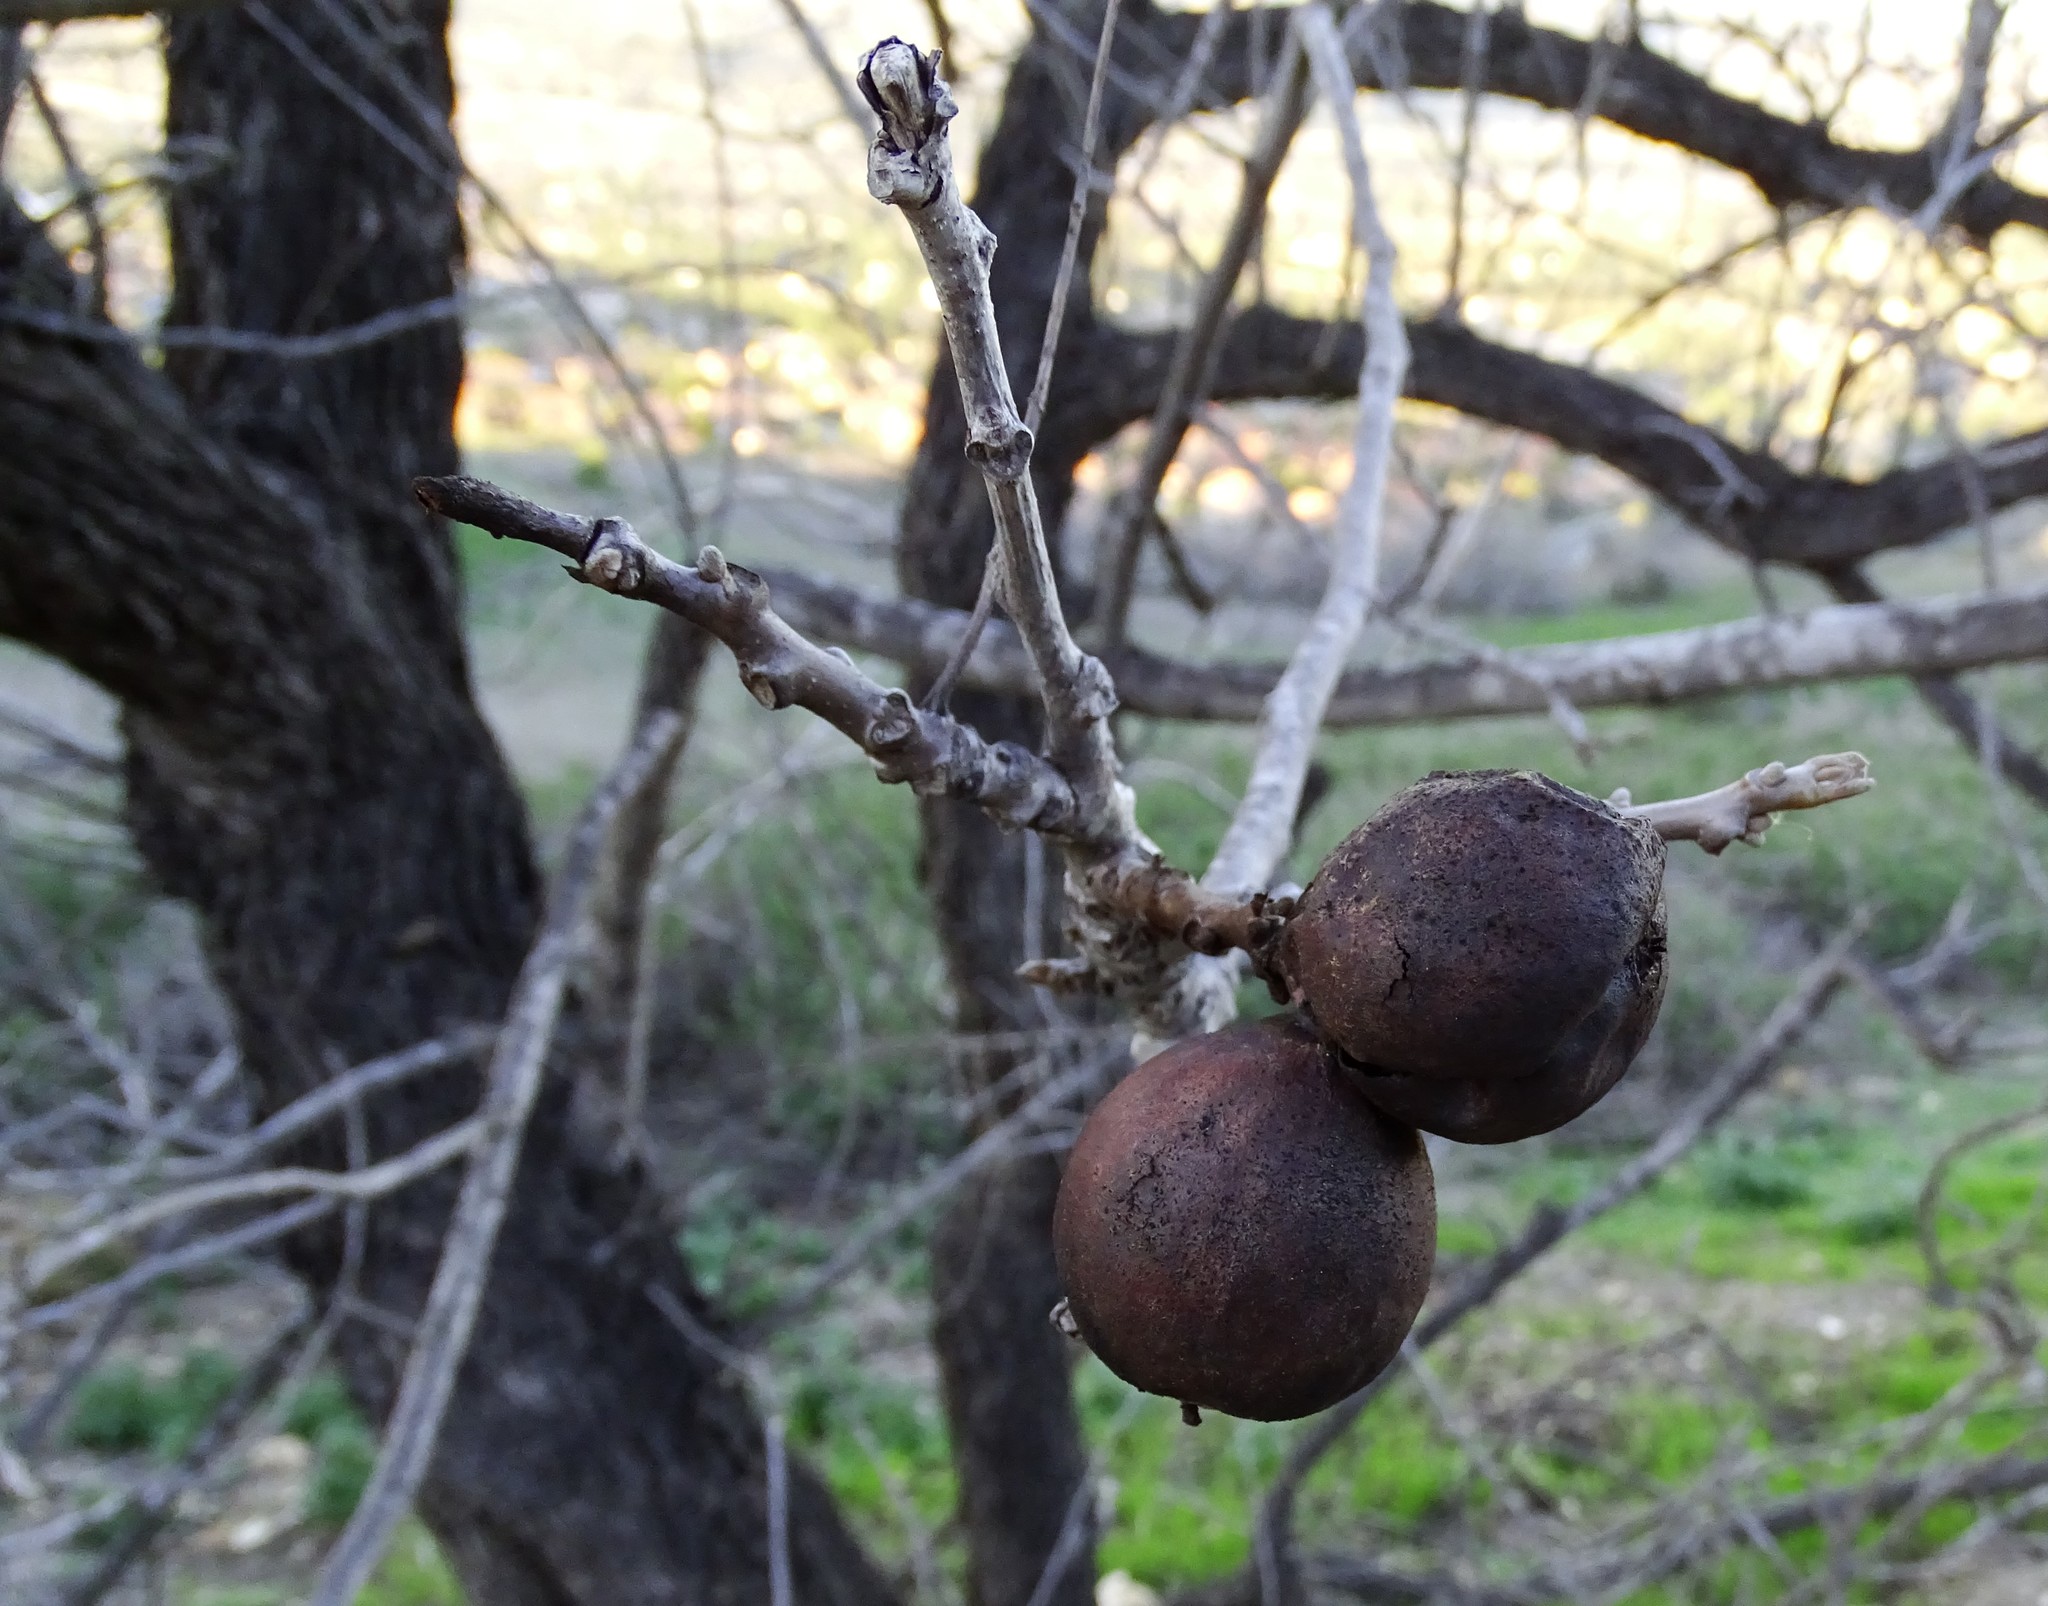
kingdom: Plantae
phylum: Tracheophyta
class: Magnoliopsida
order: Fagales
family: Juglandaceae
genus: Juglans
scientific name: Juglans californica
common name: Southern california black walnut
